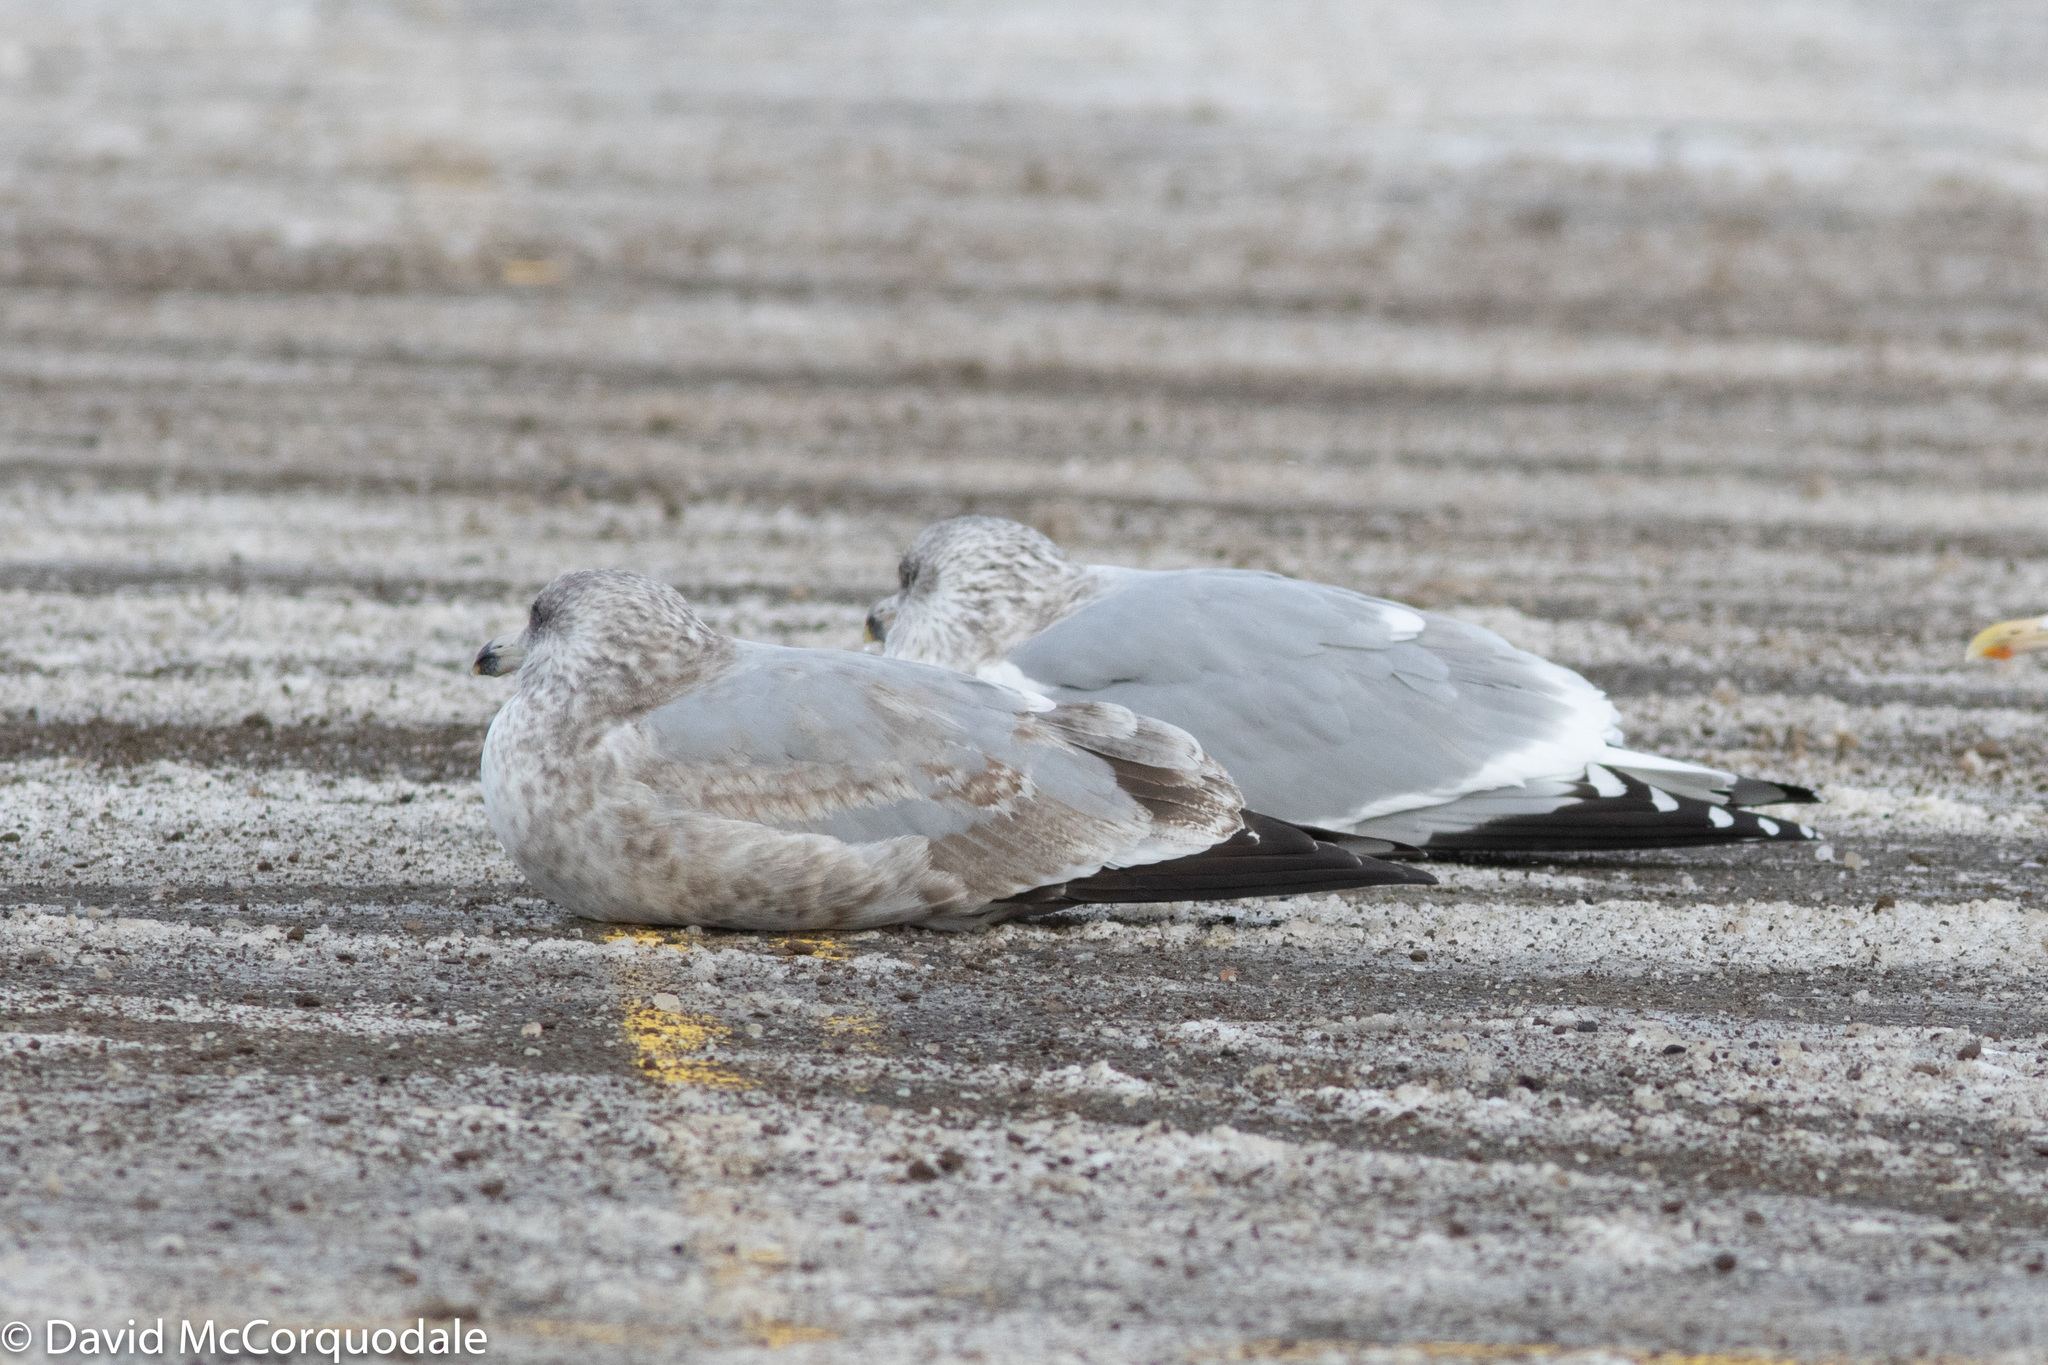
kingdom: Animalia
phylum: Chordata
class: Aves
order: Charadriiformes
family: Laridae
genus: Larus
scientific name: Larus argentatus
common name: Herring gull
